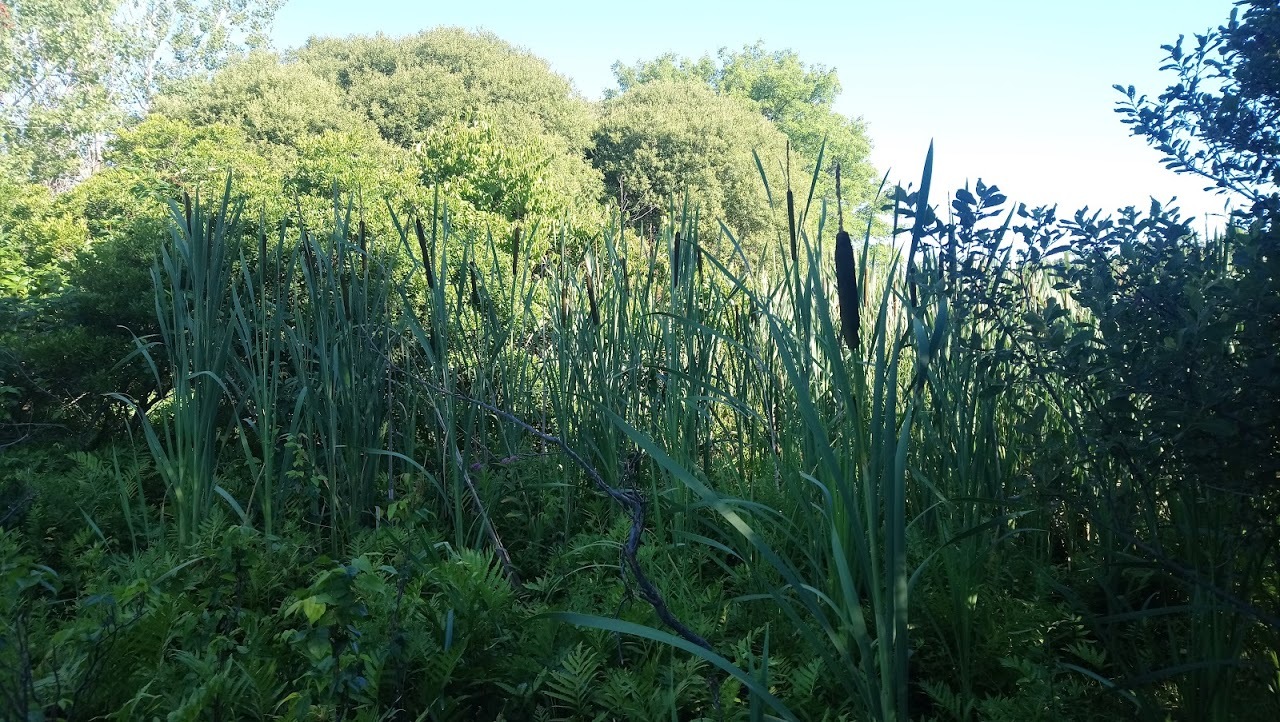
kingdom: Plantae
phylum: Tracheophyta
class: Liliopsida
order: Poales
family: Typhaceae
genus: Typha
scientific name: Typha latifolia
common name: Broadleaf cattail
